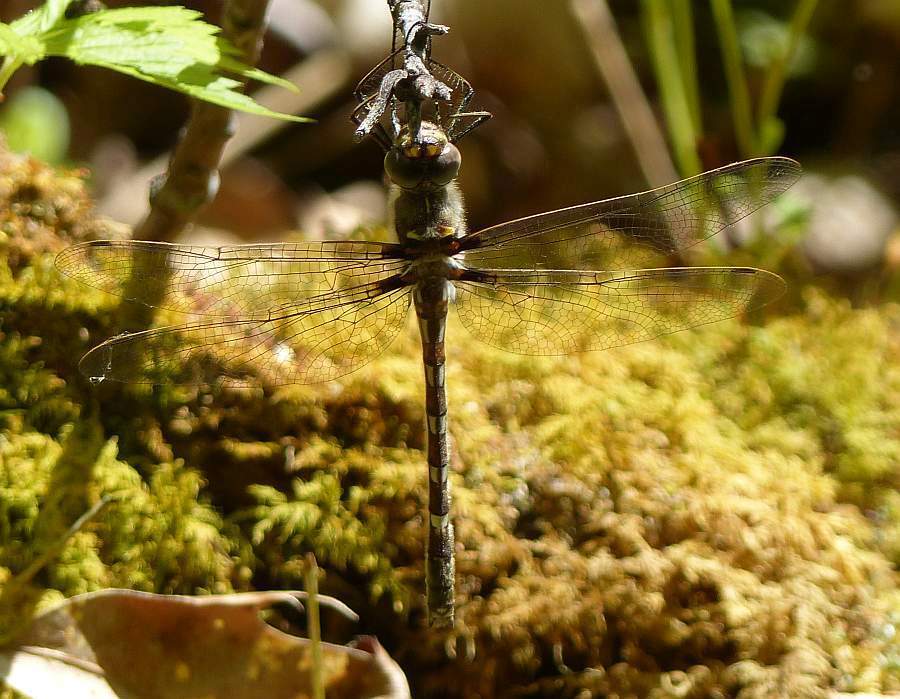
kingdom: Animalia
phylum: Arthropoda
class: Insecta
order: Odonata
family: Macromiidae
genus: Didymops
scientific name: Didymops transversa
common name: Stream cruiser
